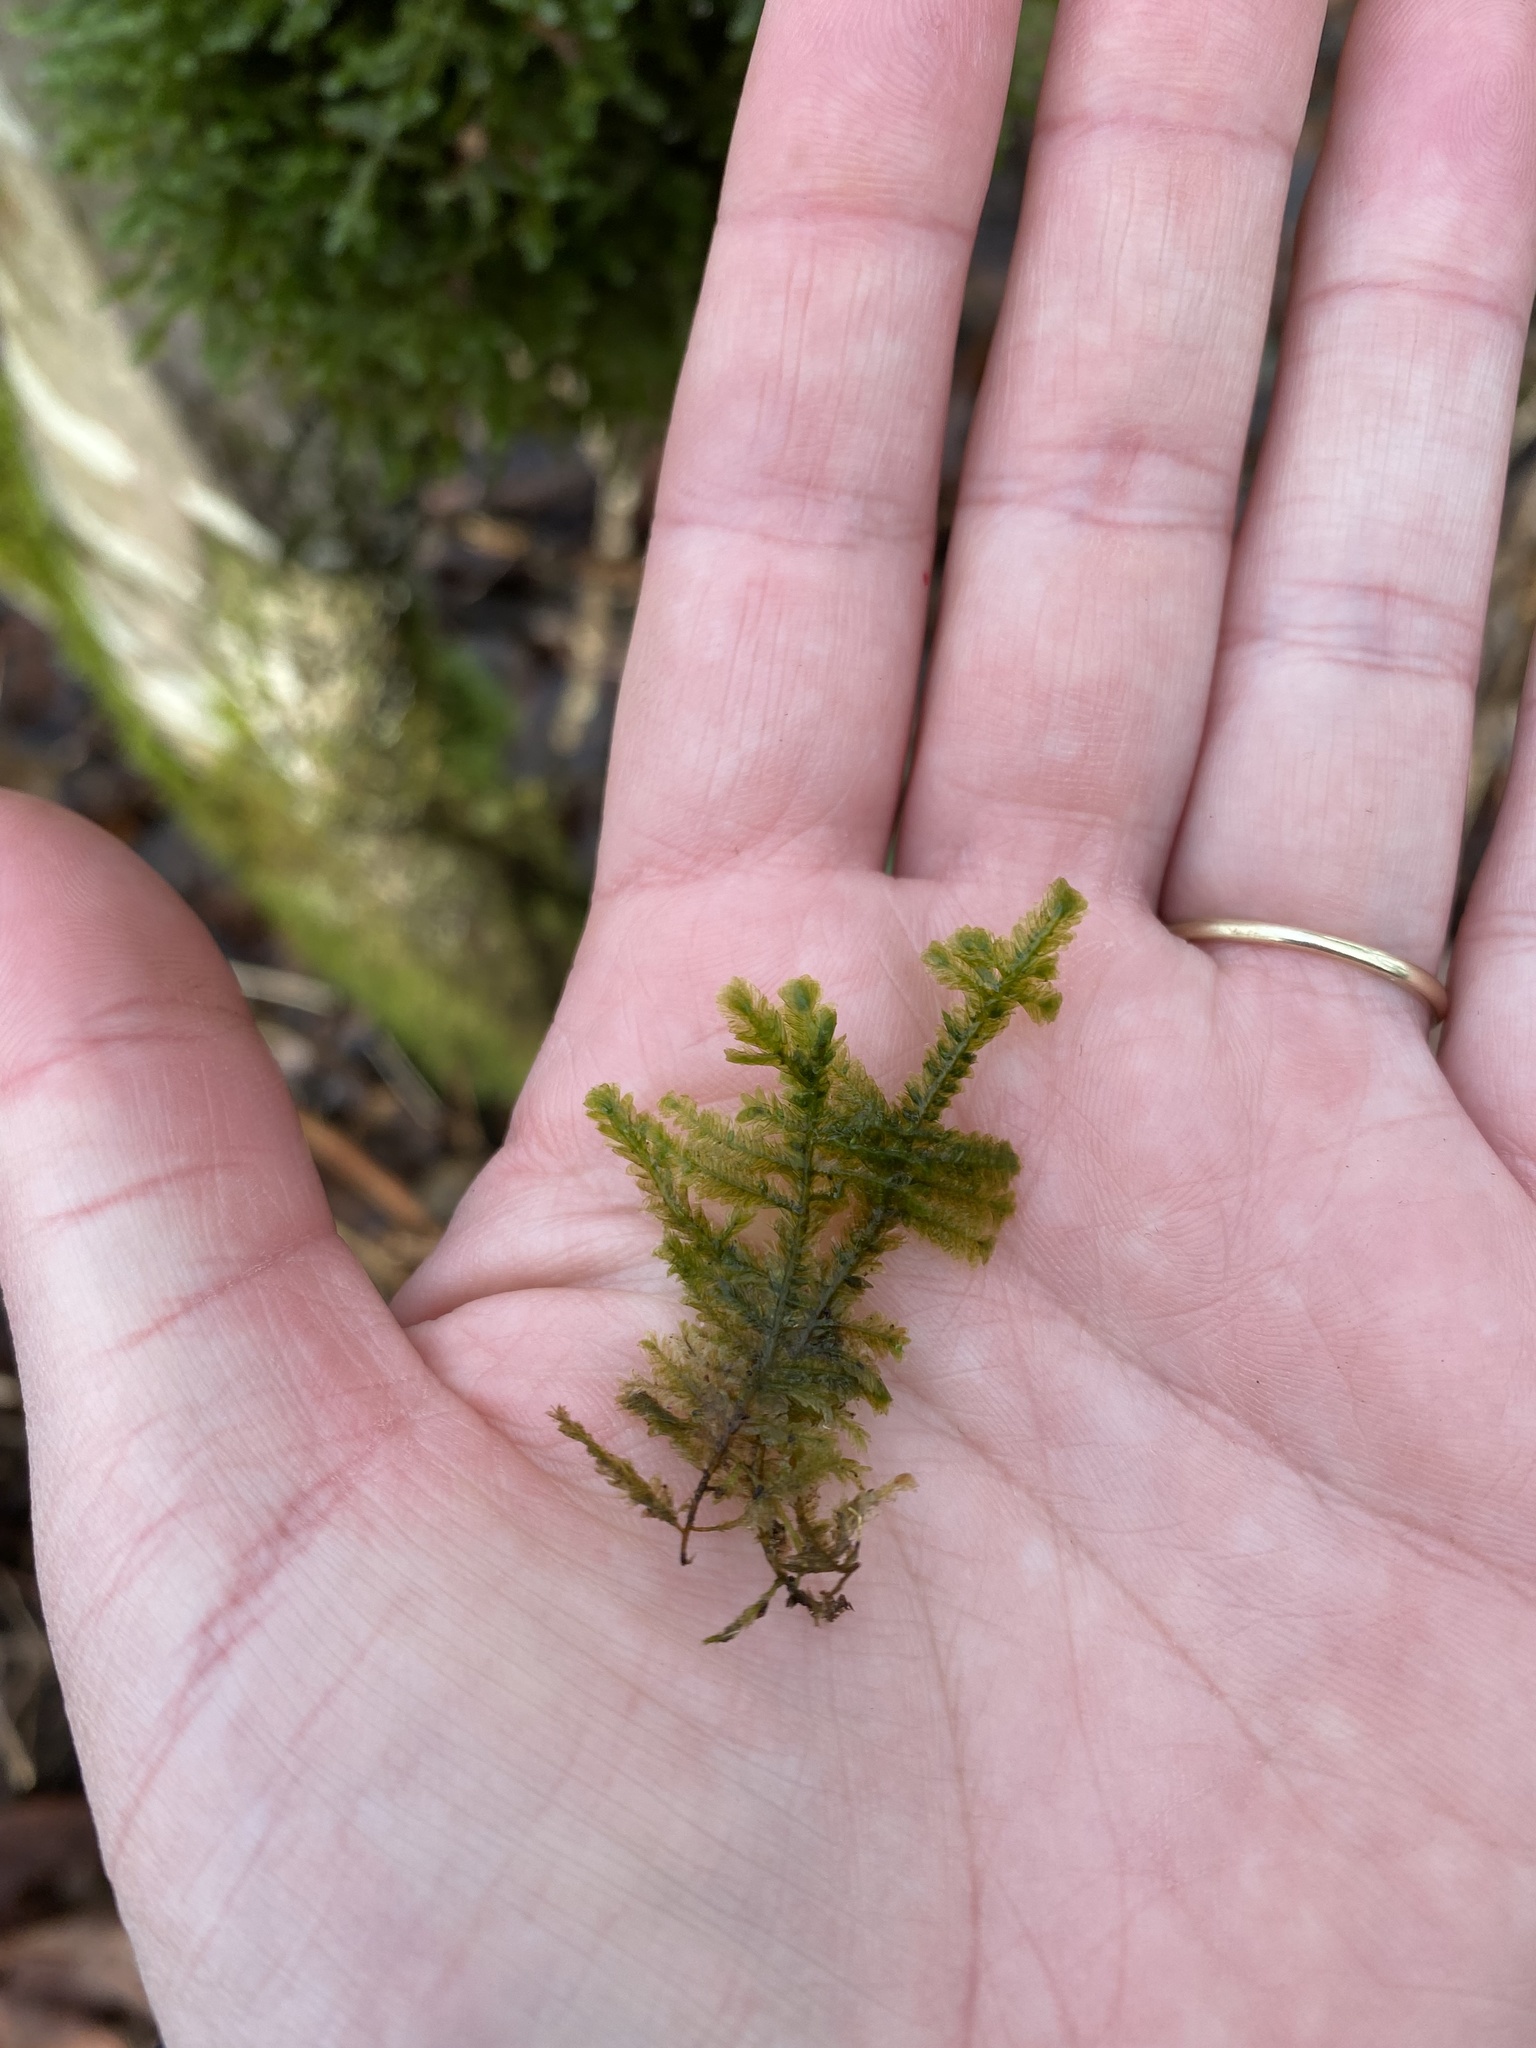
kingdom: Plantae
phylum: Bryophyta
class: Bryopsida
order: Hypnales
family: Neckeraceae
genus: Neckera
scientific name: Neckera pennata
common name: Feathery neckera
